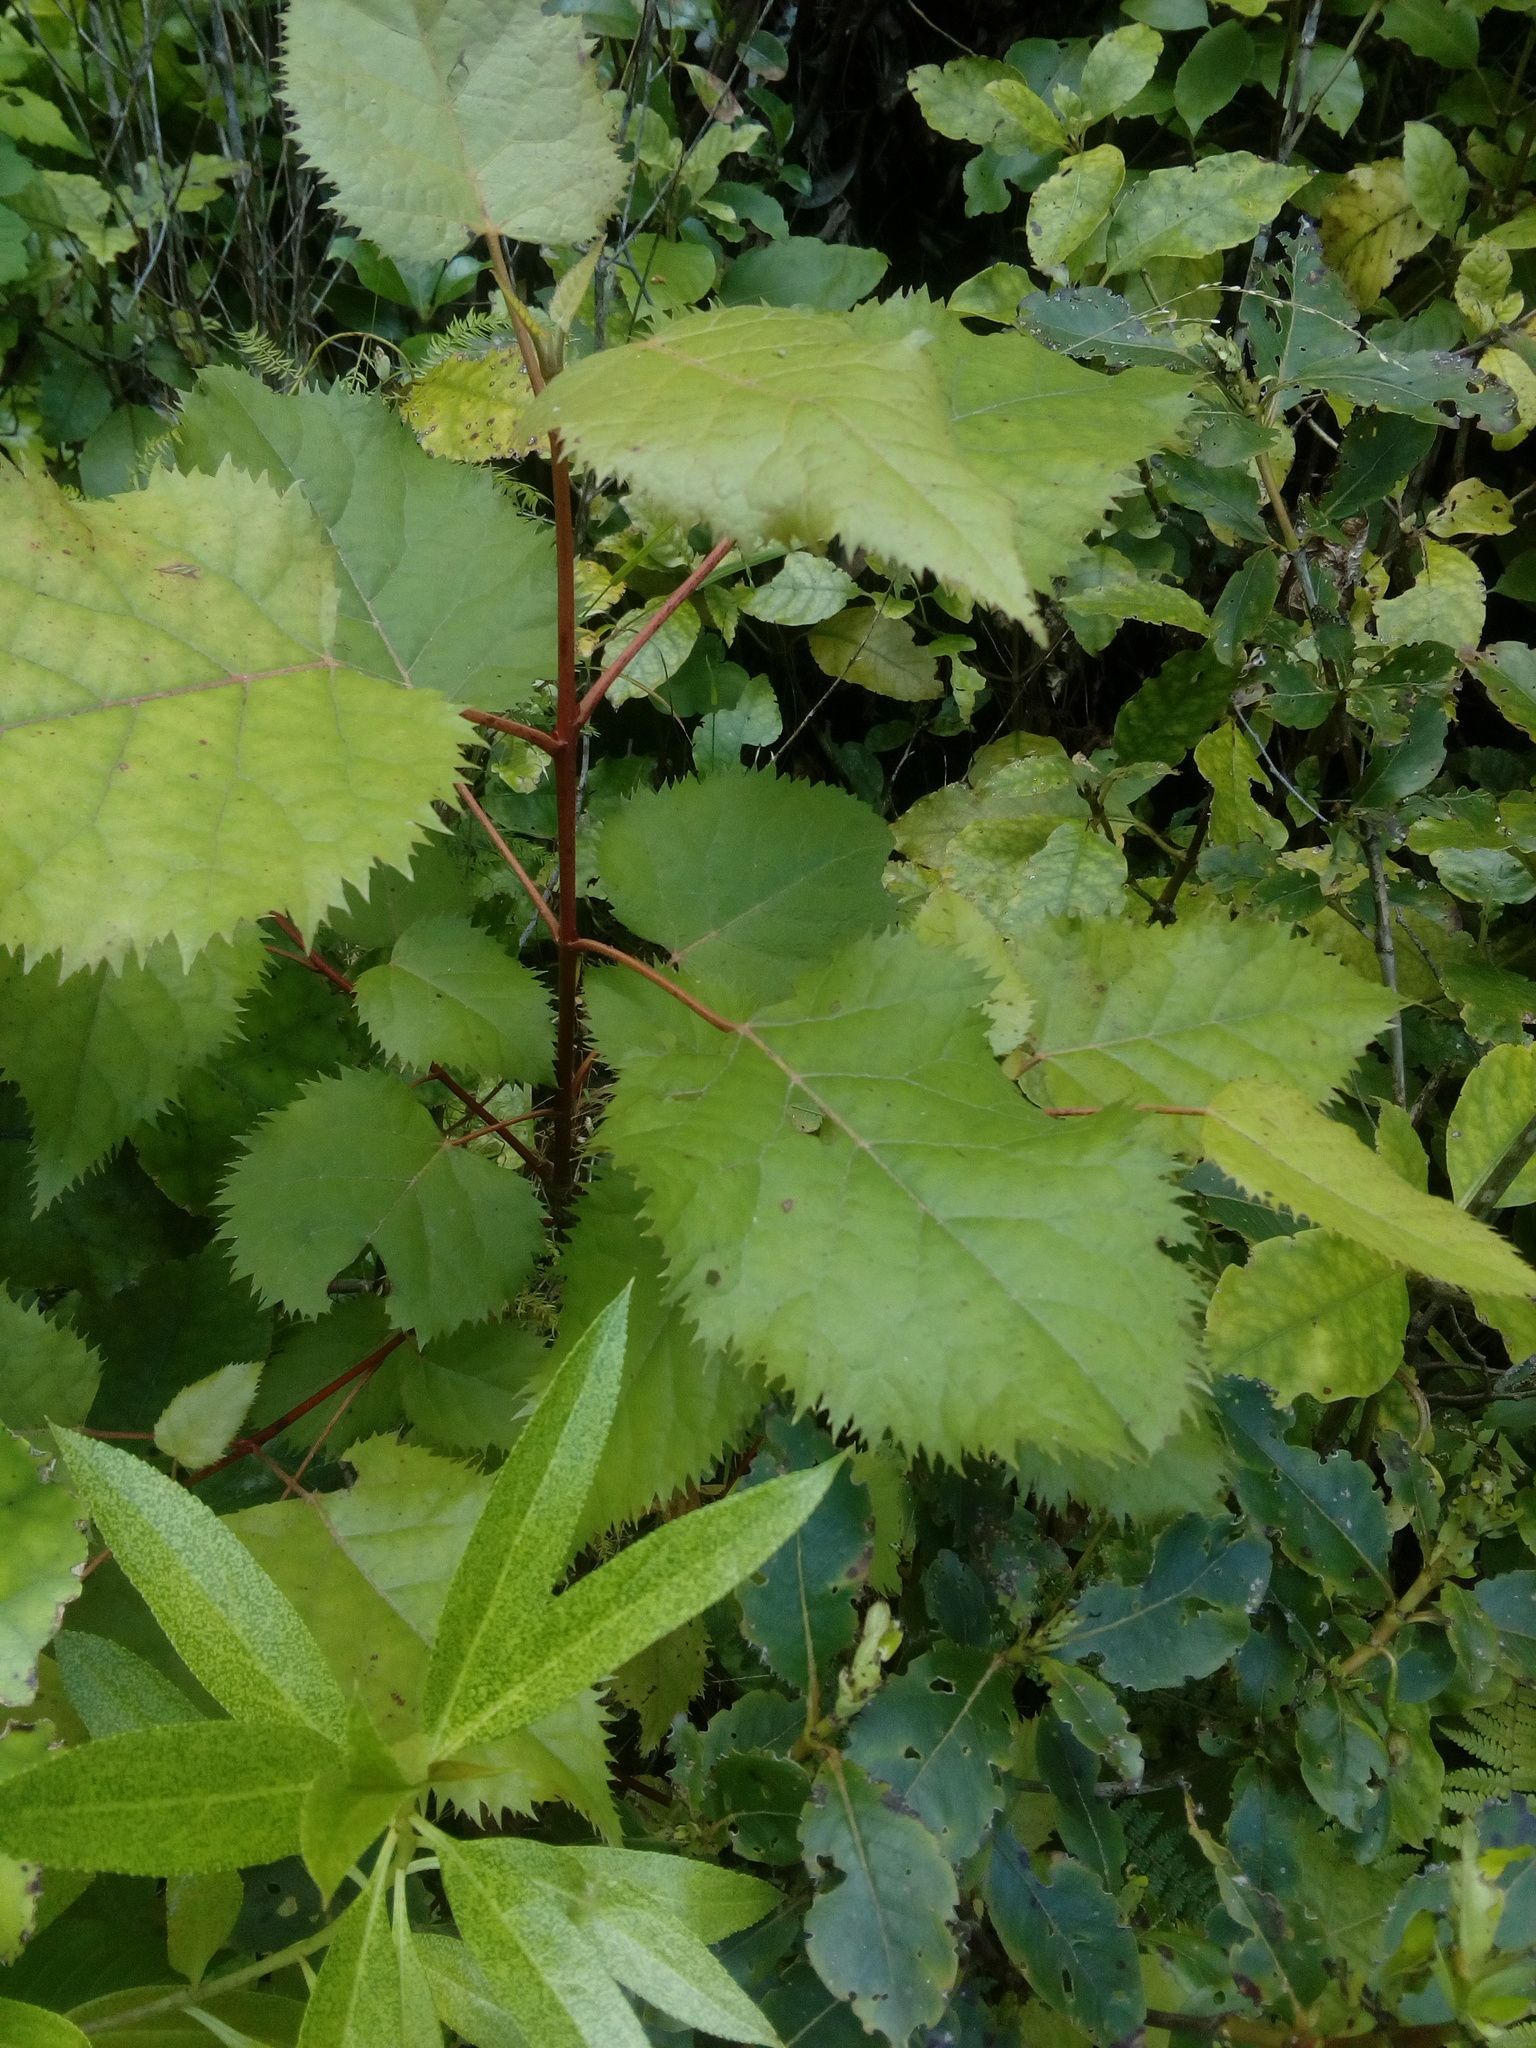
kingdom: Plantae
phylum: Tracheophyta
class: Magnoliopsida
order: Oxalidales
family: Elaeocarpaceae
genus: Aristotelia
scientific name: Aristotelia serrata
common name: New zealand wineberry
